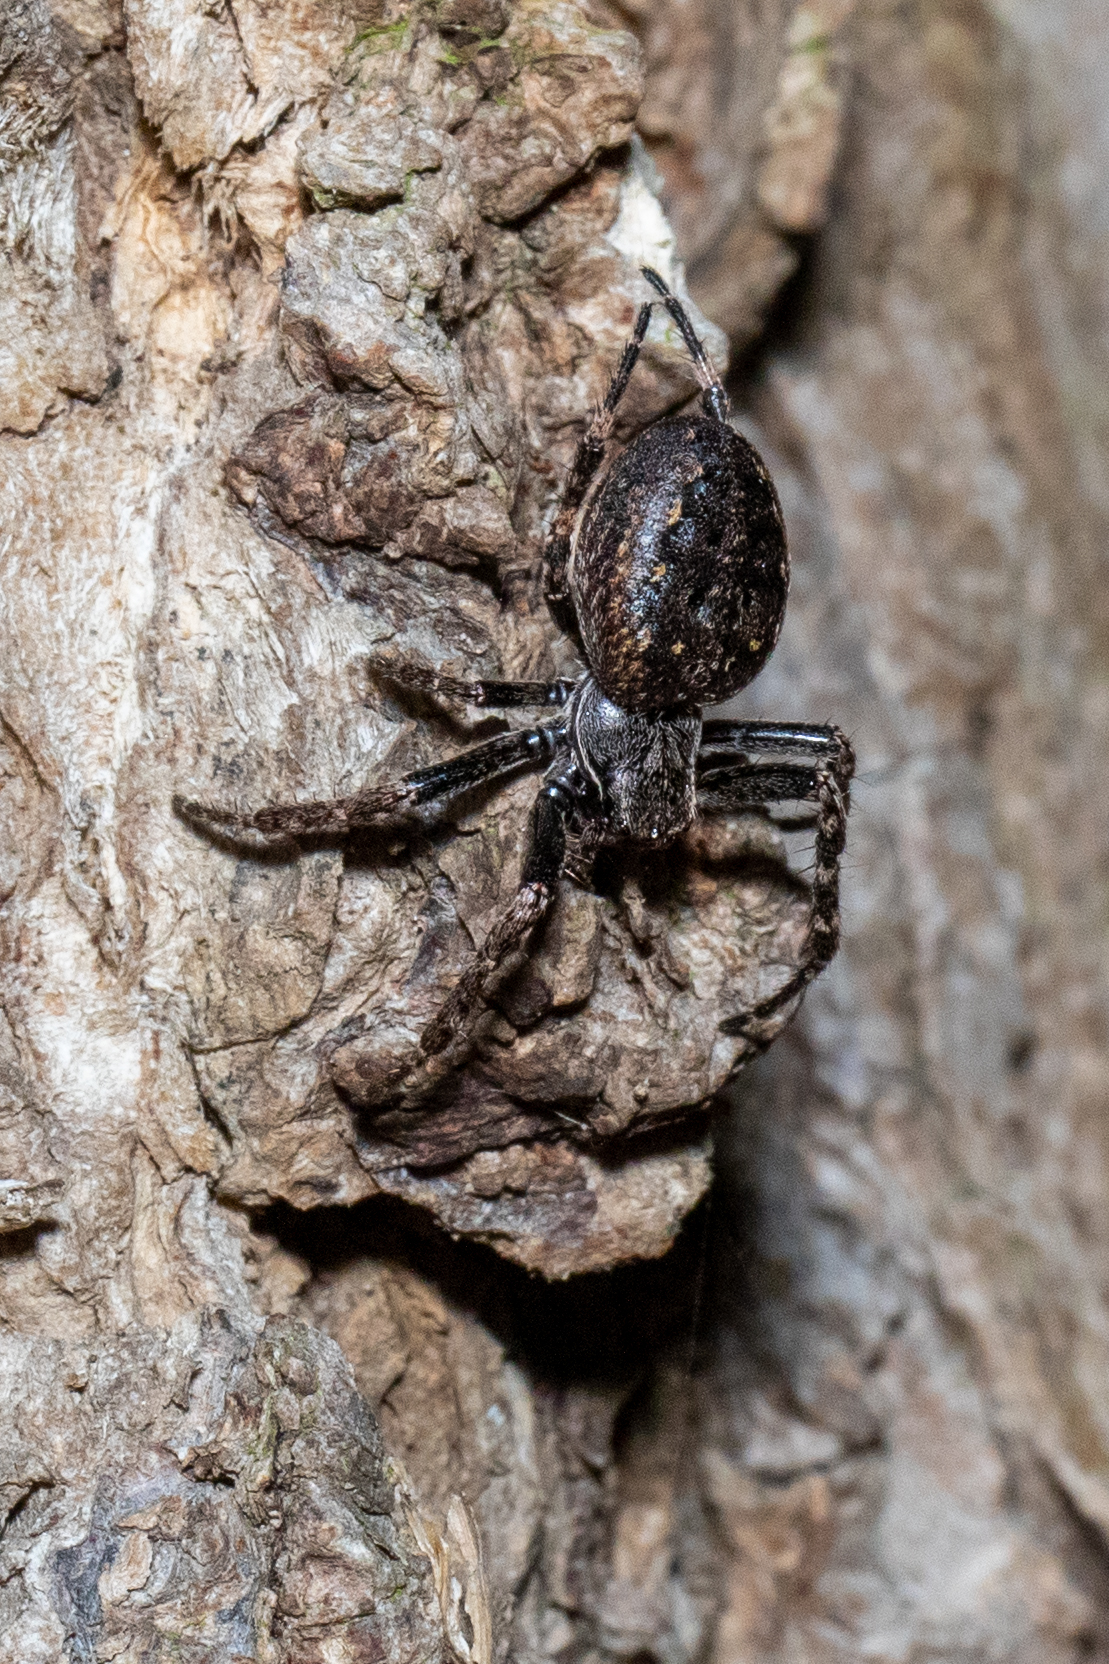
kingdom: Animalia
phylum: Arthropoda
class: Arachnida
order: Araneae
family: Araneidae
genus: Nuctenea
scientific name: Nuctenea umbratica
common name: Toad spider
